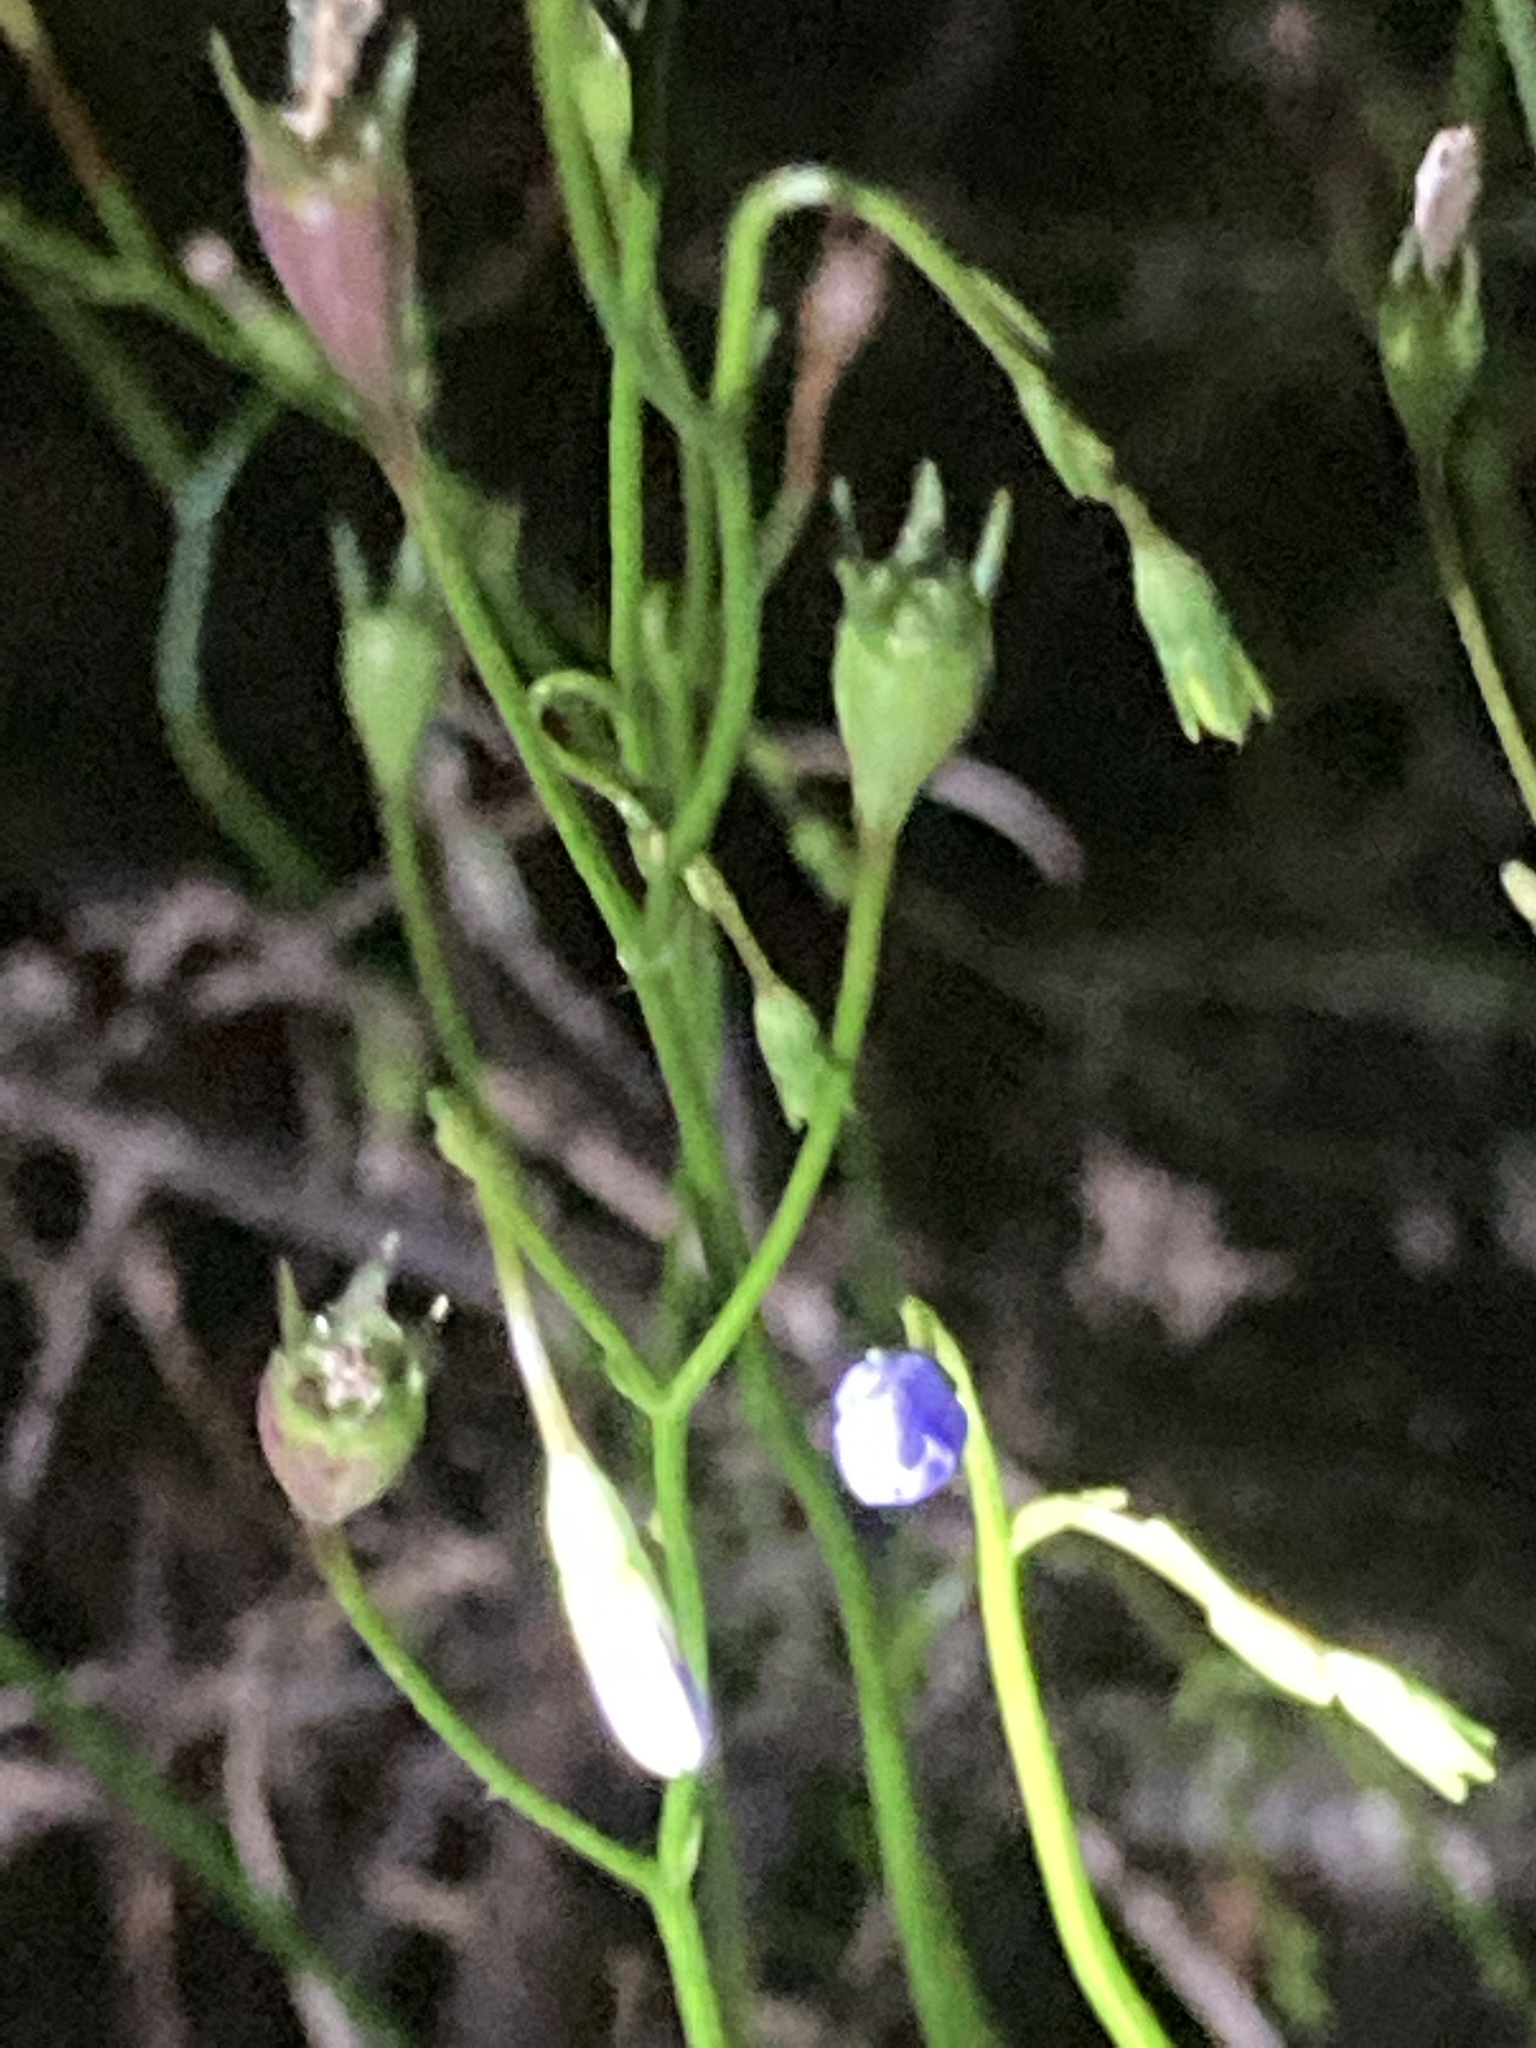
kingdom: Plantae
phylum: Tracheophyta
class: Magnoliopsida
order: Asterales
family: Campanulaceae
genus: Wahlenbergia
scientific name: Wahlenbergia marginata
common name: Southern rockbell
